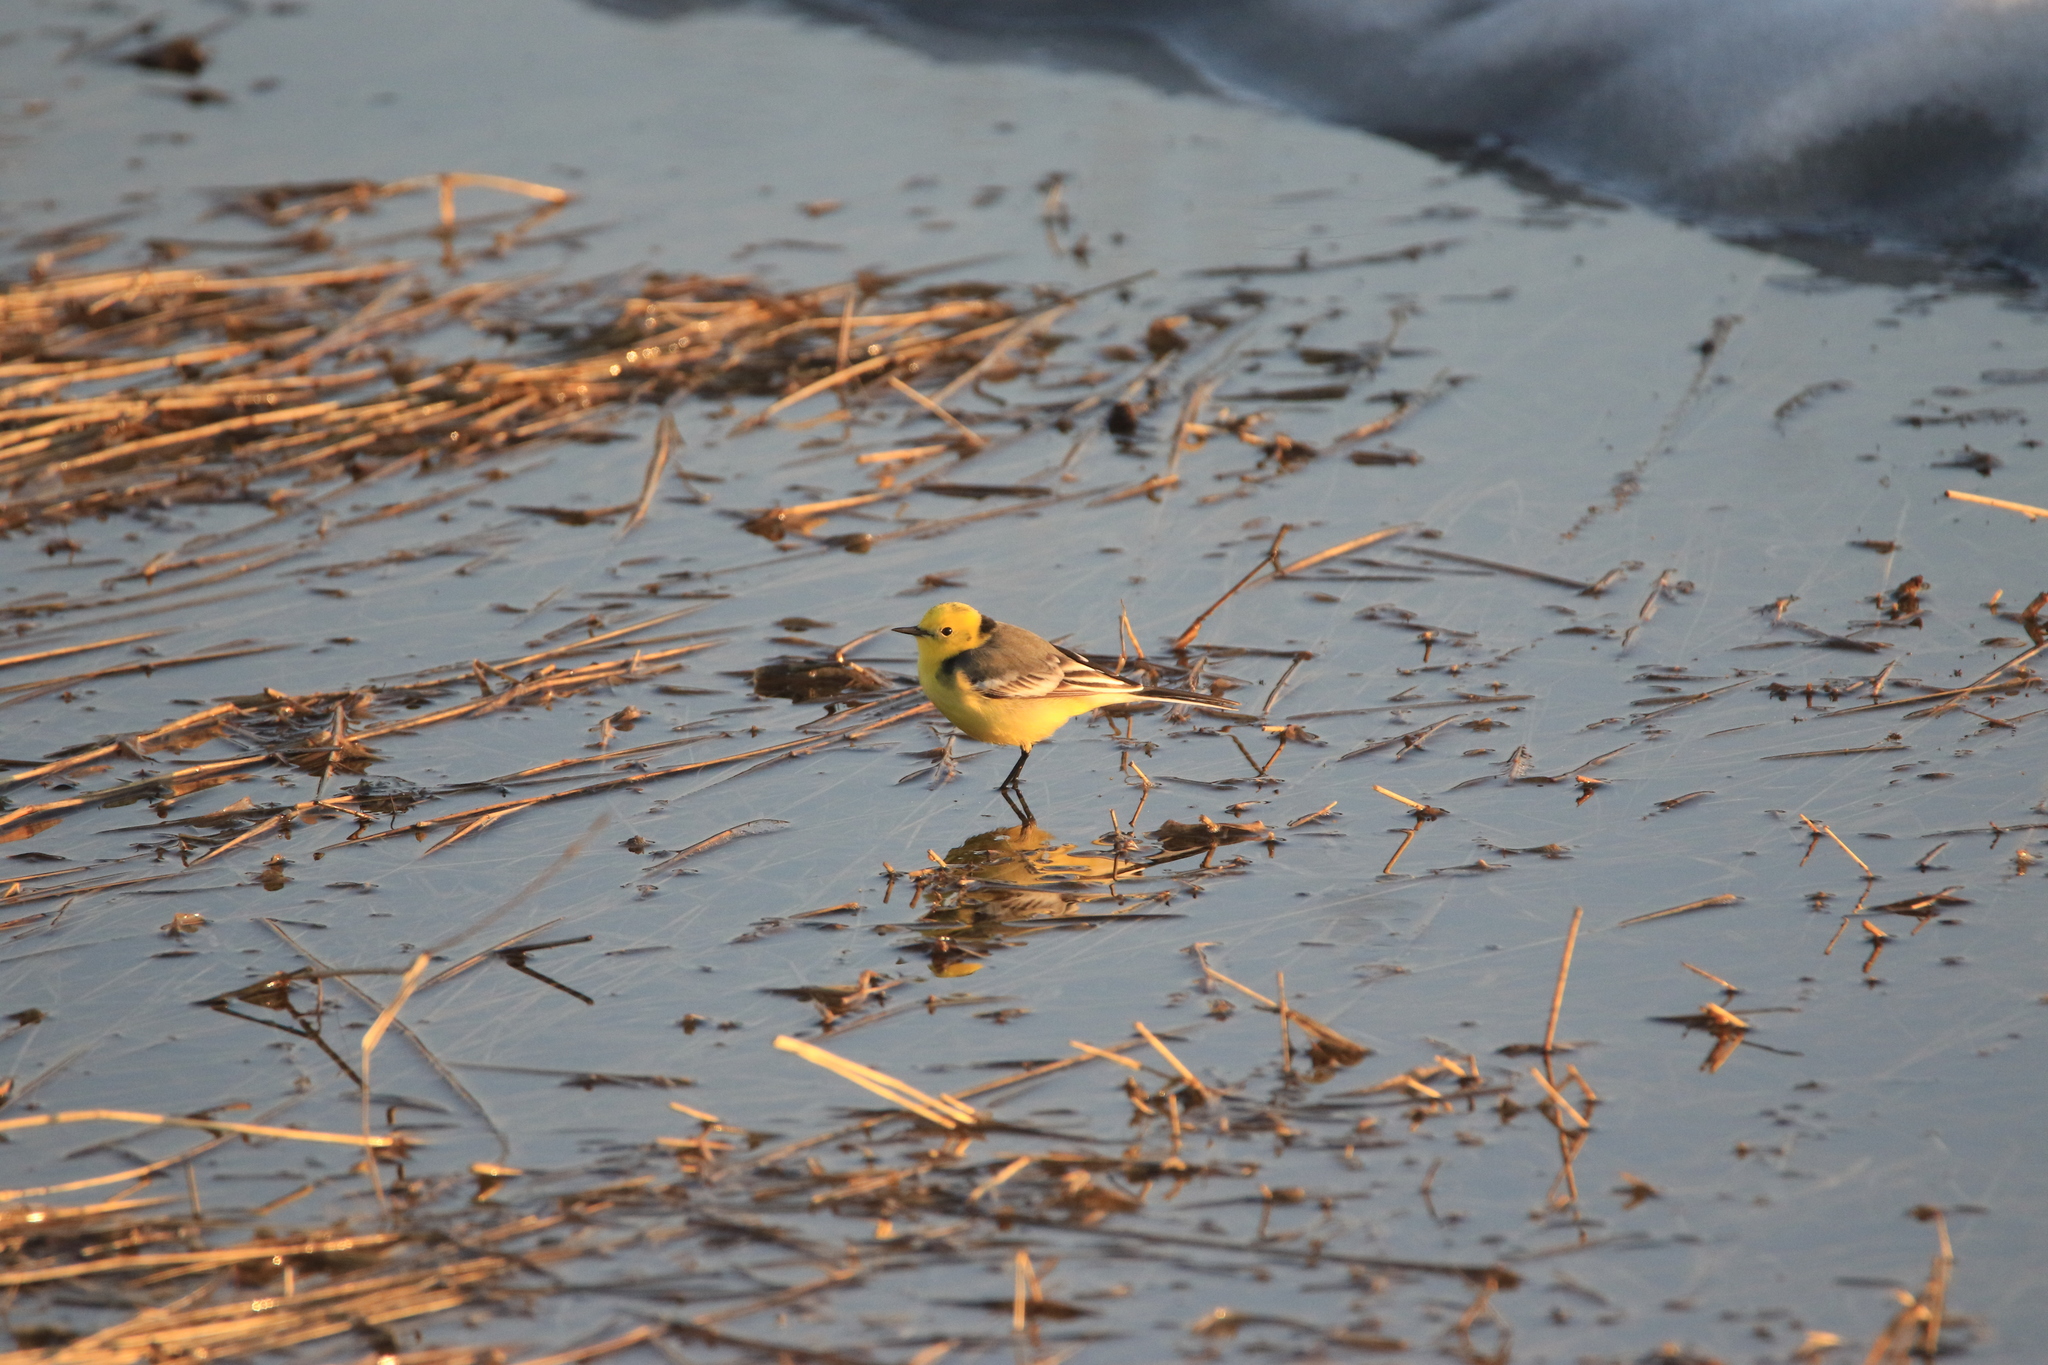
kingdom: Animalia
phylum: Chordata
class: Aves
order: Passeriformes
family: Motacillidae
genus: Motacilla
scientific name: Motacilla citreola
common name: Citrine wagtail
